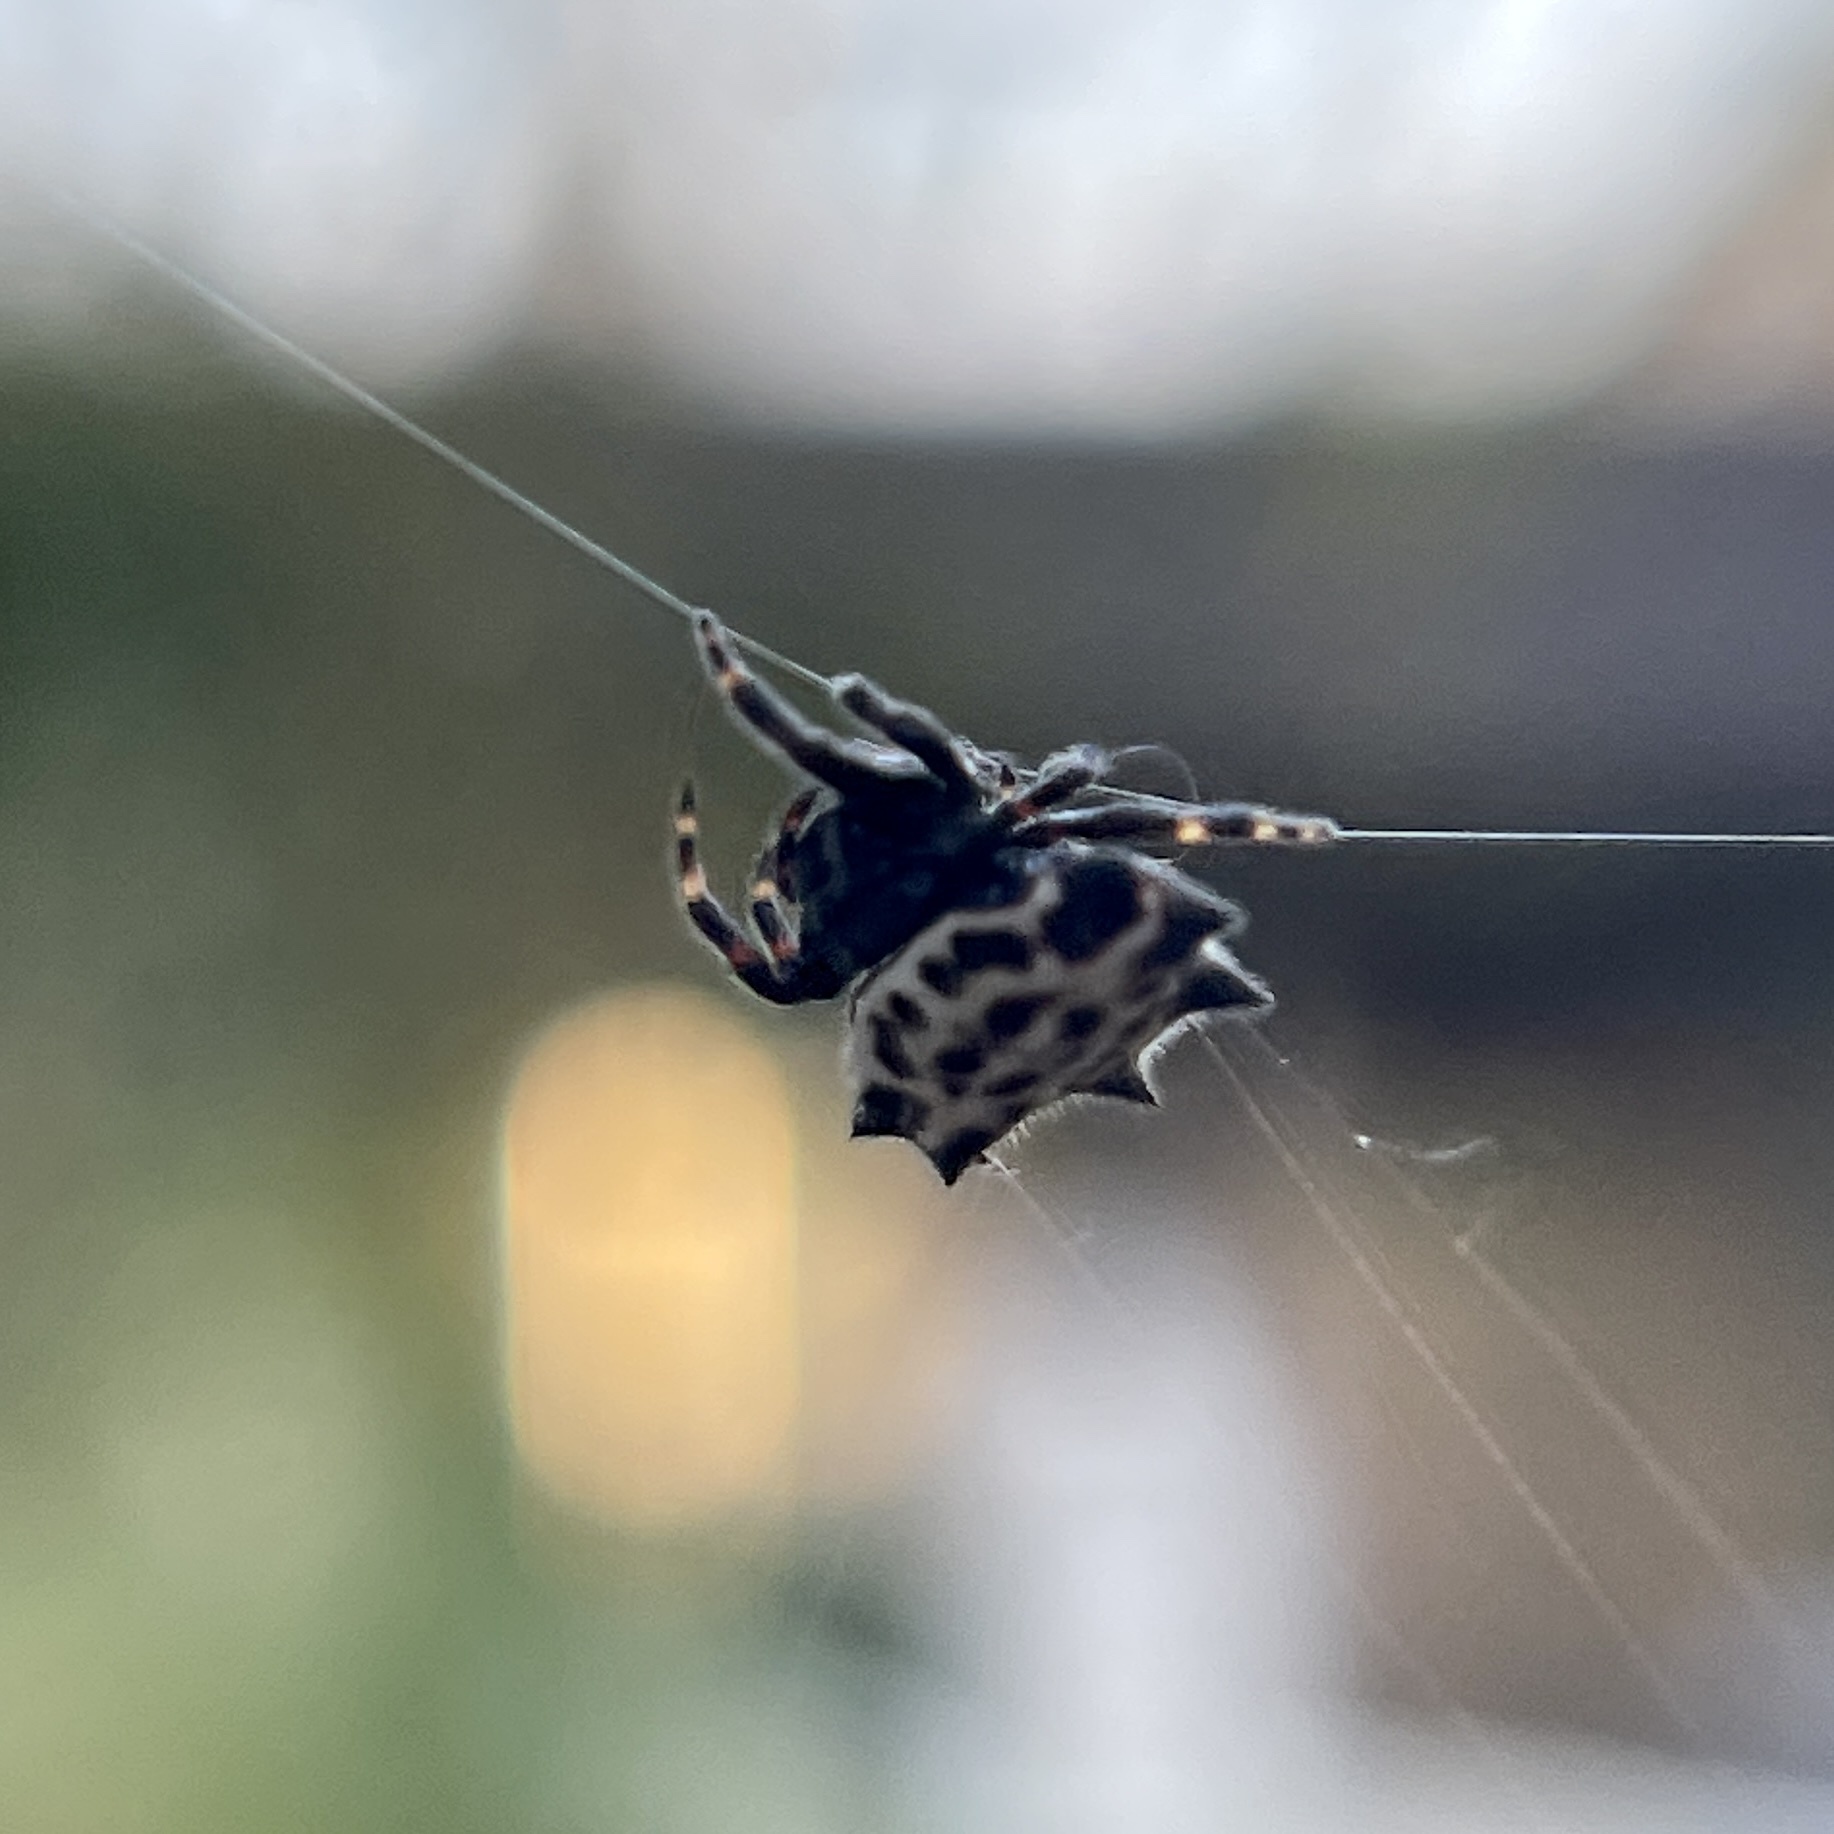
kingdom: Animalia
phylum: Arthropoda
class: Arachnida
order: Araneae
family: Araneidae
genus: Gasteracantha
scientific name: Gasteracantha cancriformis
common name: Orb weavers
